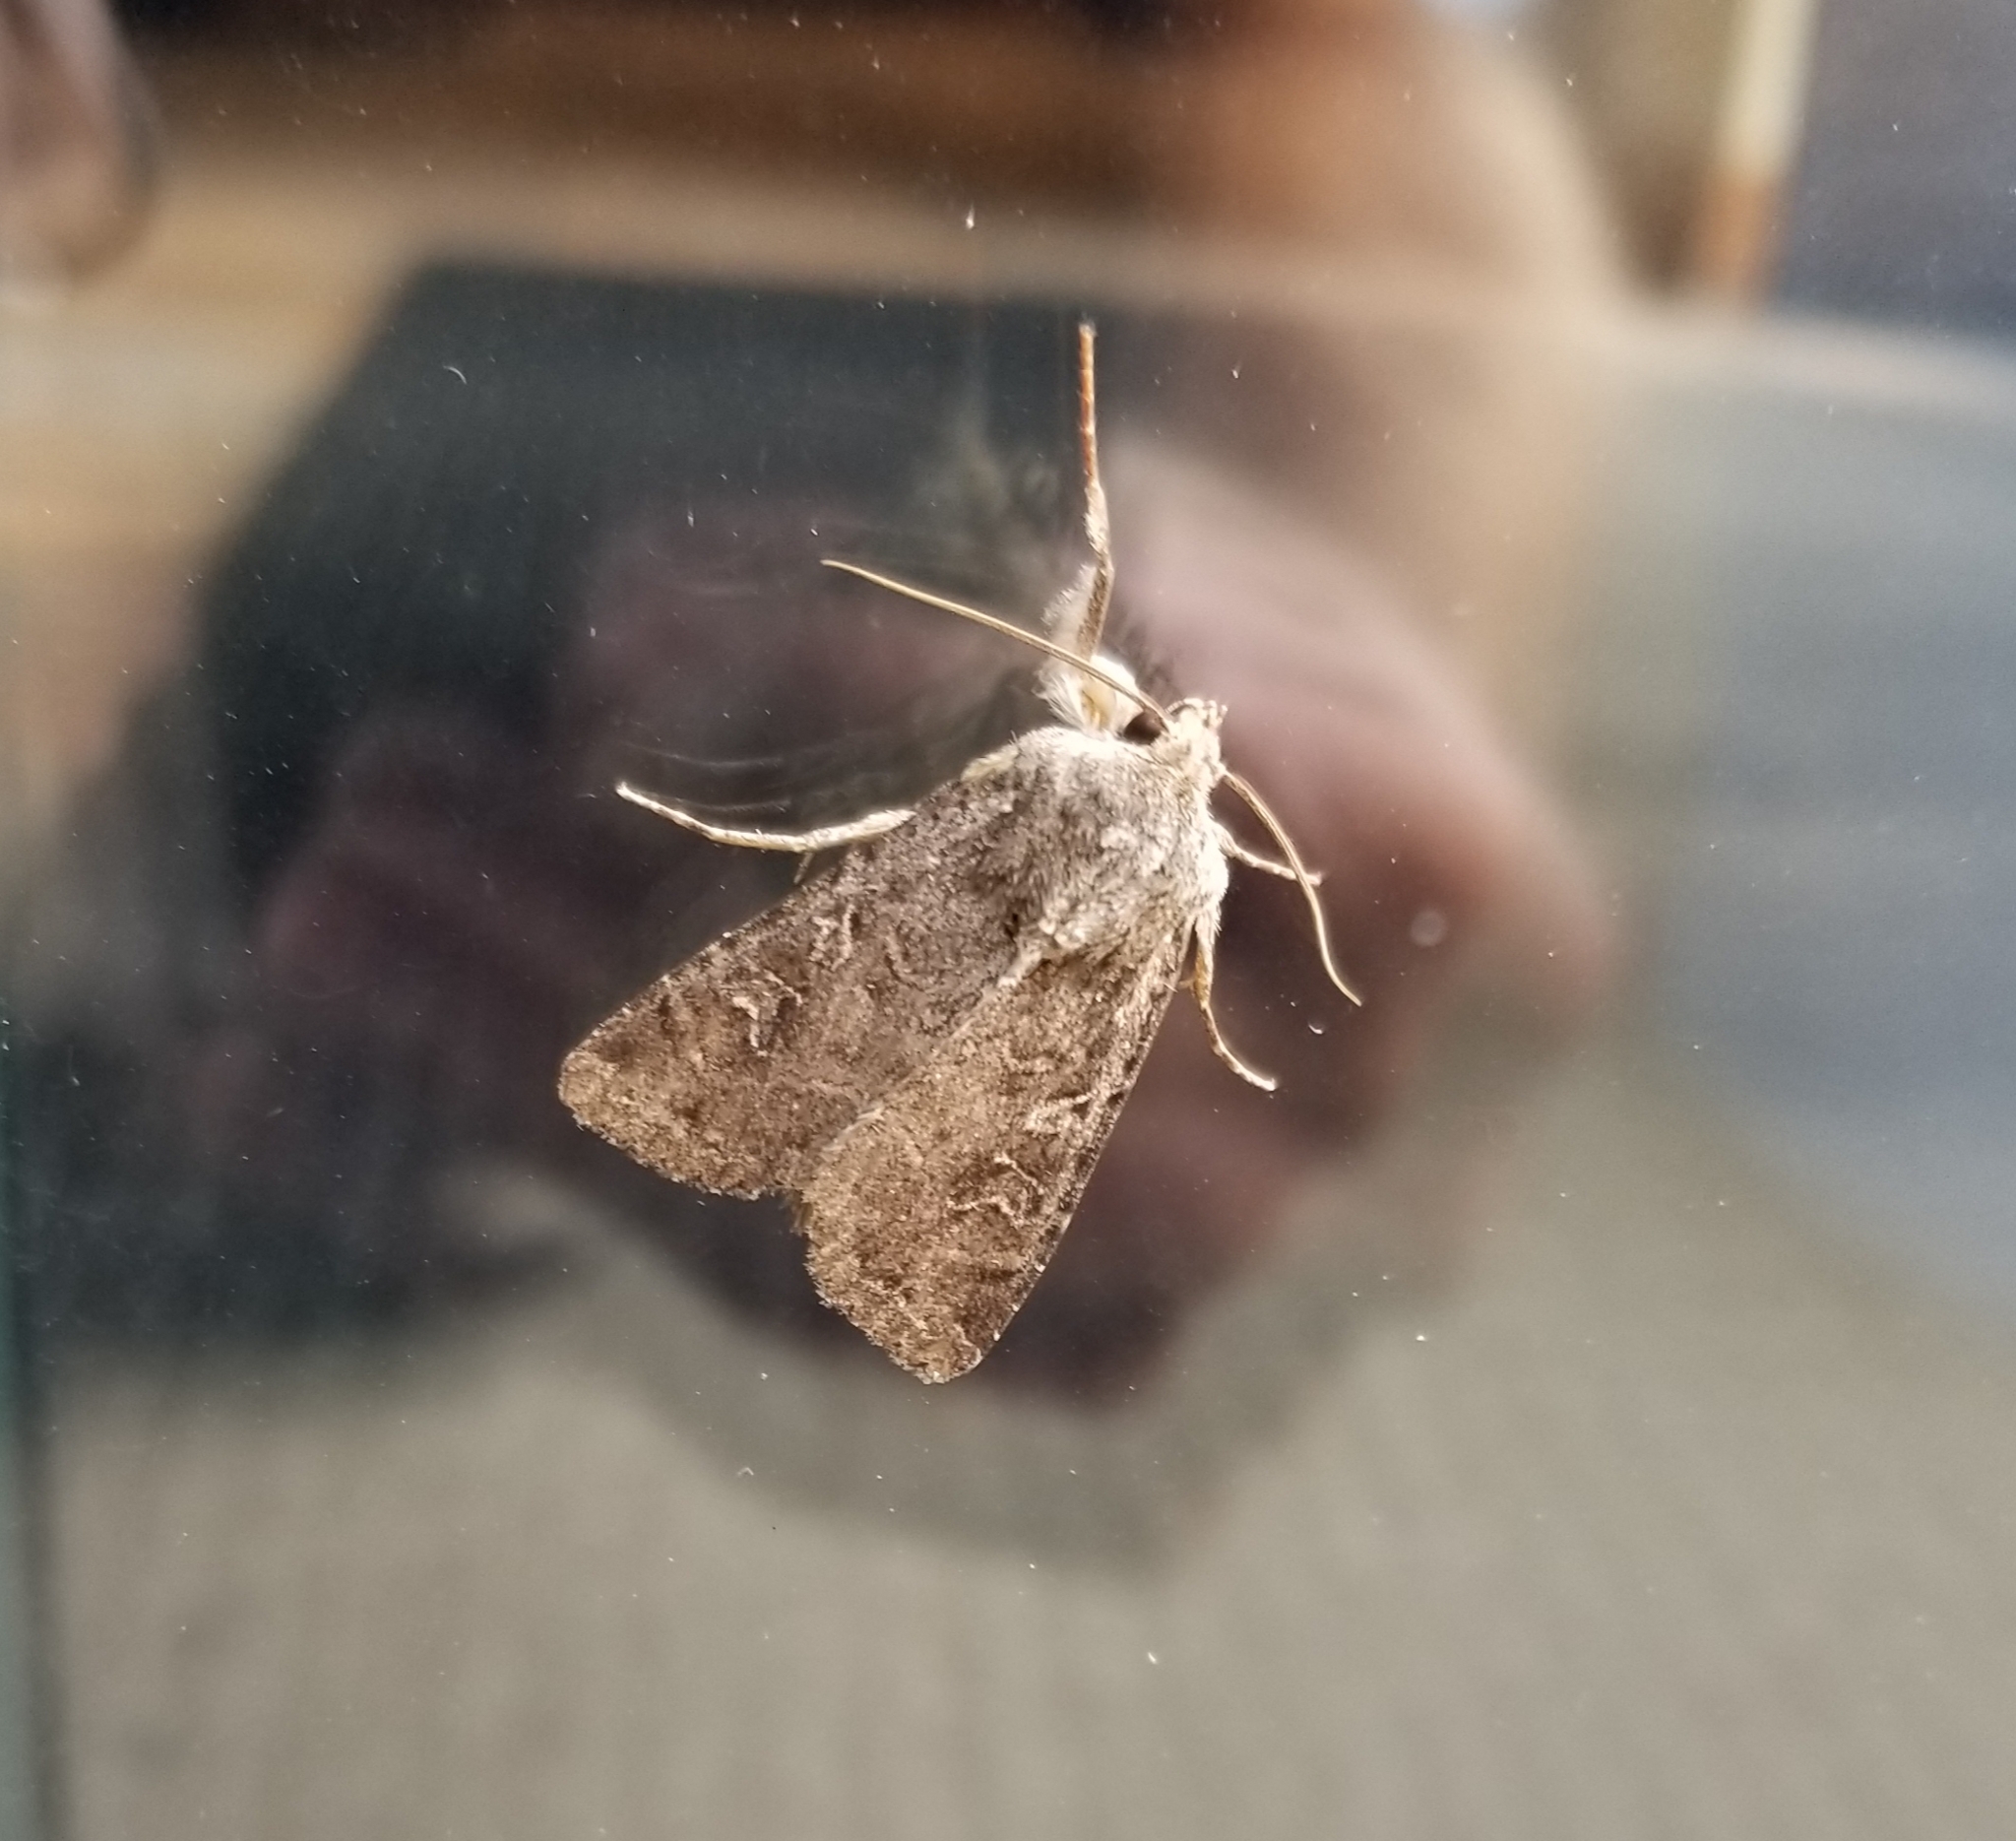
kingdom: Animalia
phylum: Arthropoda
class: Insecta
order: Lepidoptera
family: Noctuidae
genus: Apamea
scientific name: Apamea devastator
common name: Glassy cutworm
